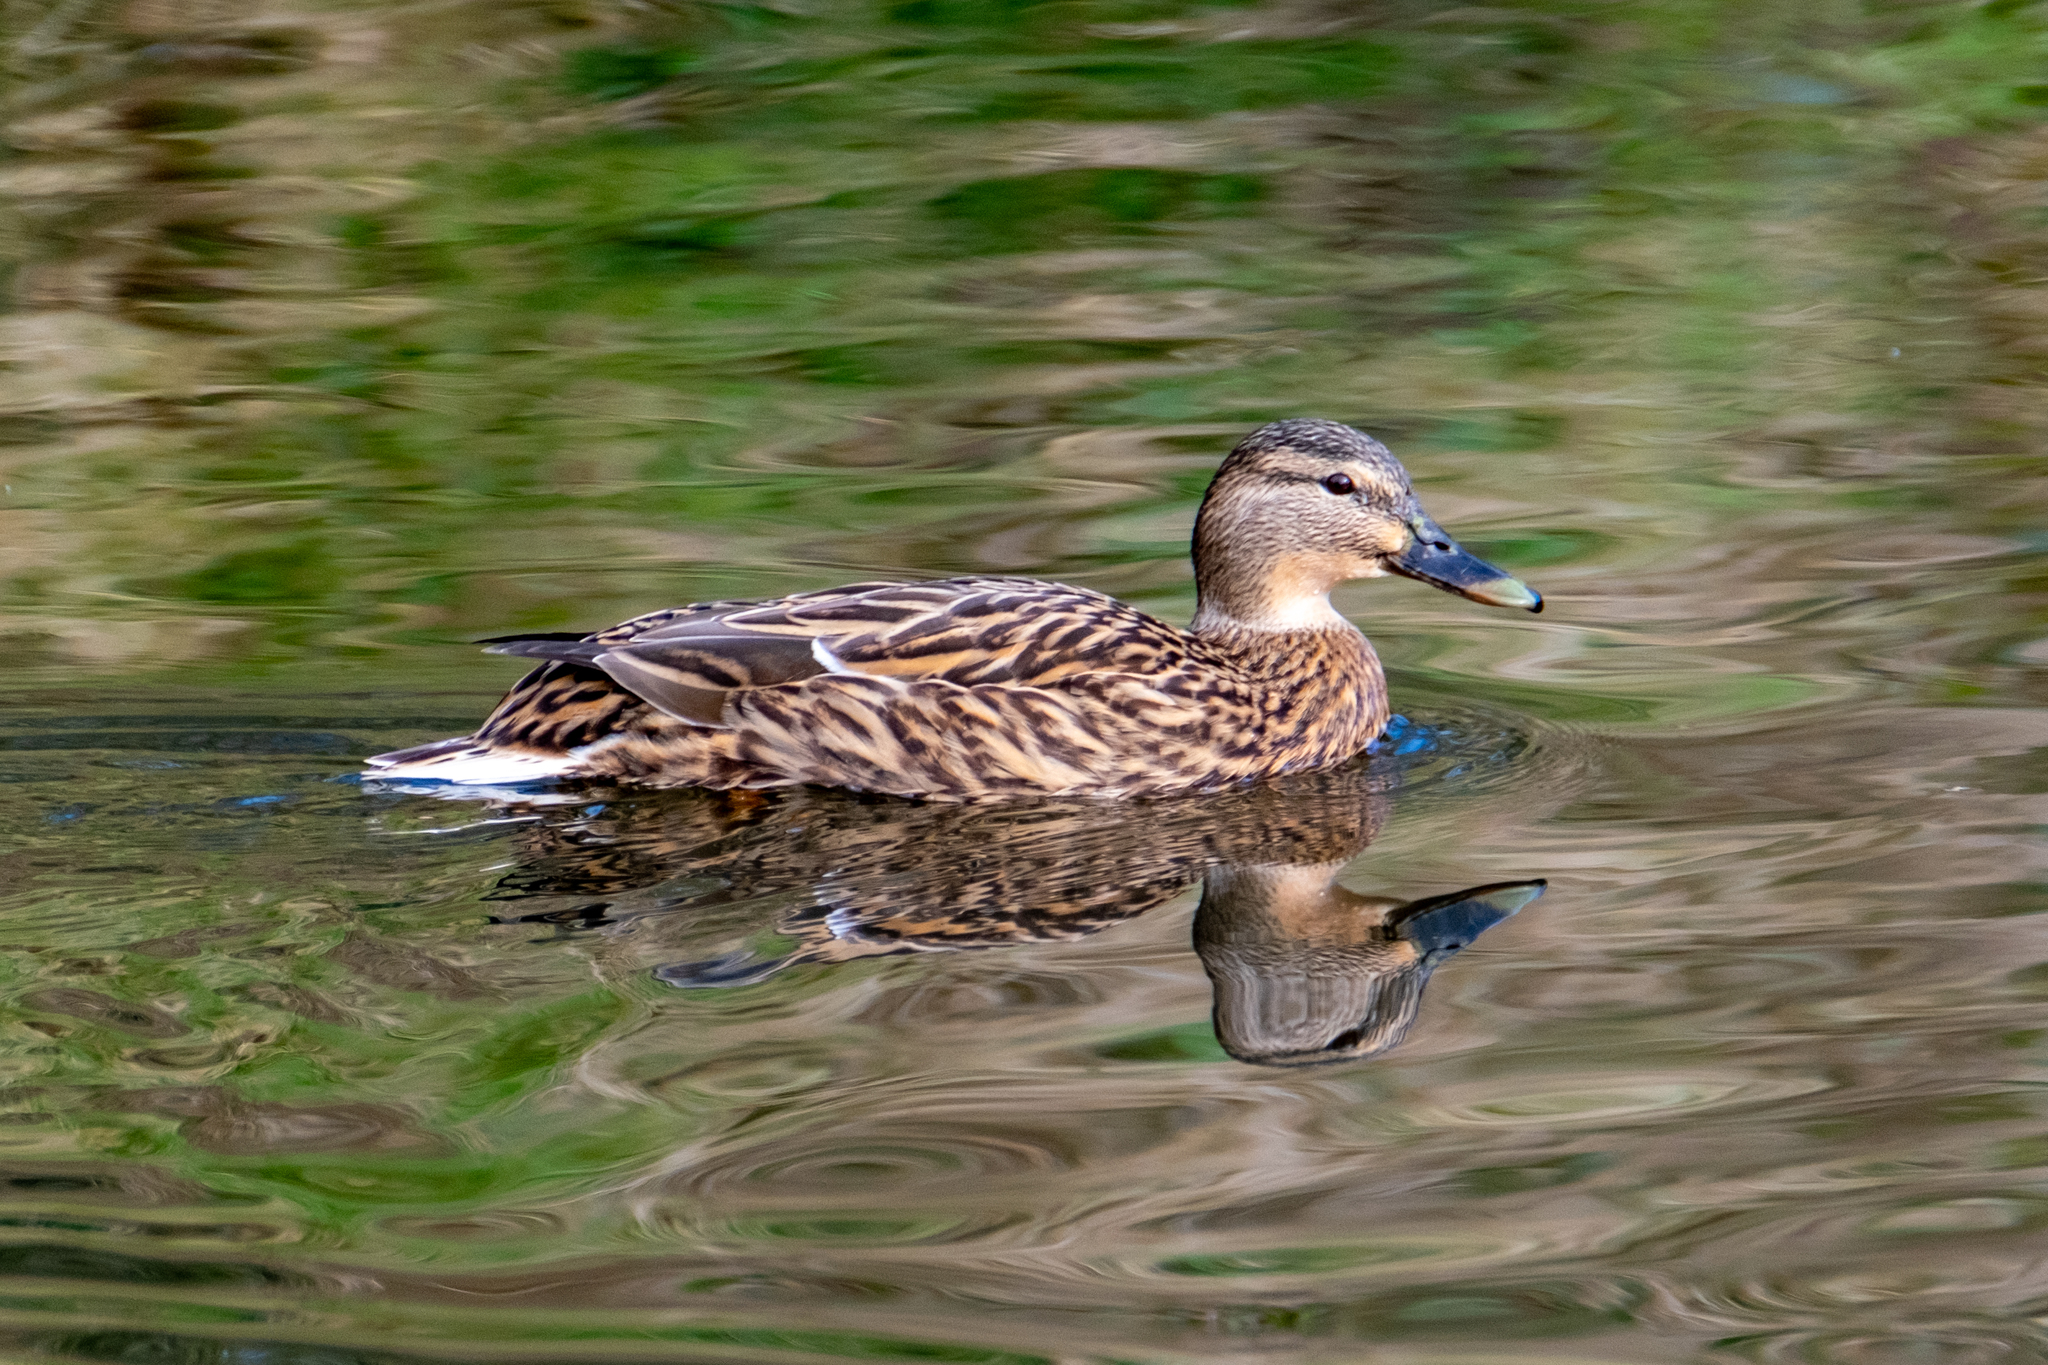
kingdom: Animalia
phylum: Chordata
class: Aves
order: Anseriformes
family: Anatidae
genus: Anas
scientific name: Anas platyrhynchos
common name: Mallard
